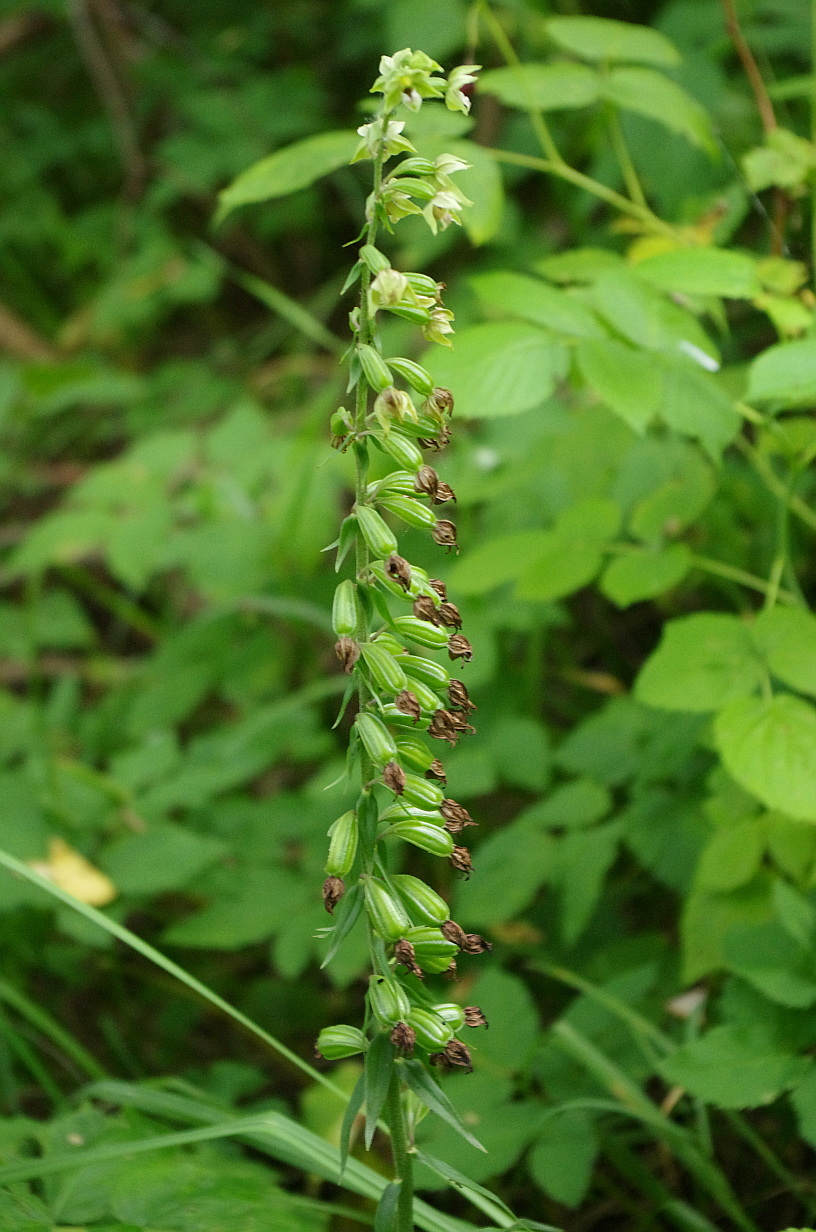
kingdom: Plantae
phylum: Tracheophyta
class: Liliopsida
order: Asparagales
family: Orchidaceae
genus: Epipactis
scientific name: Epipactis helleborine
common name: Broad-leaved helleborine
